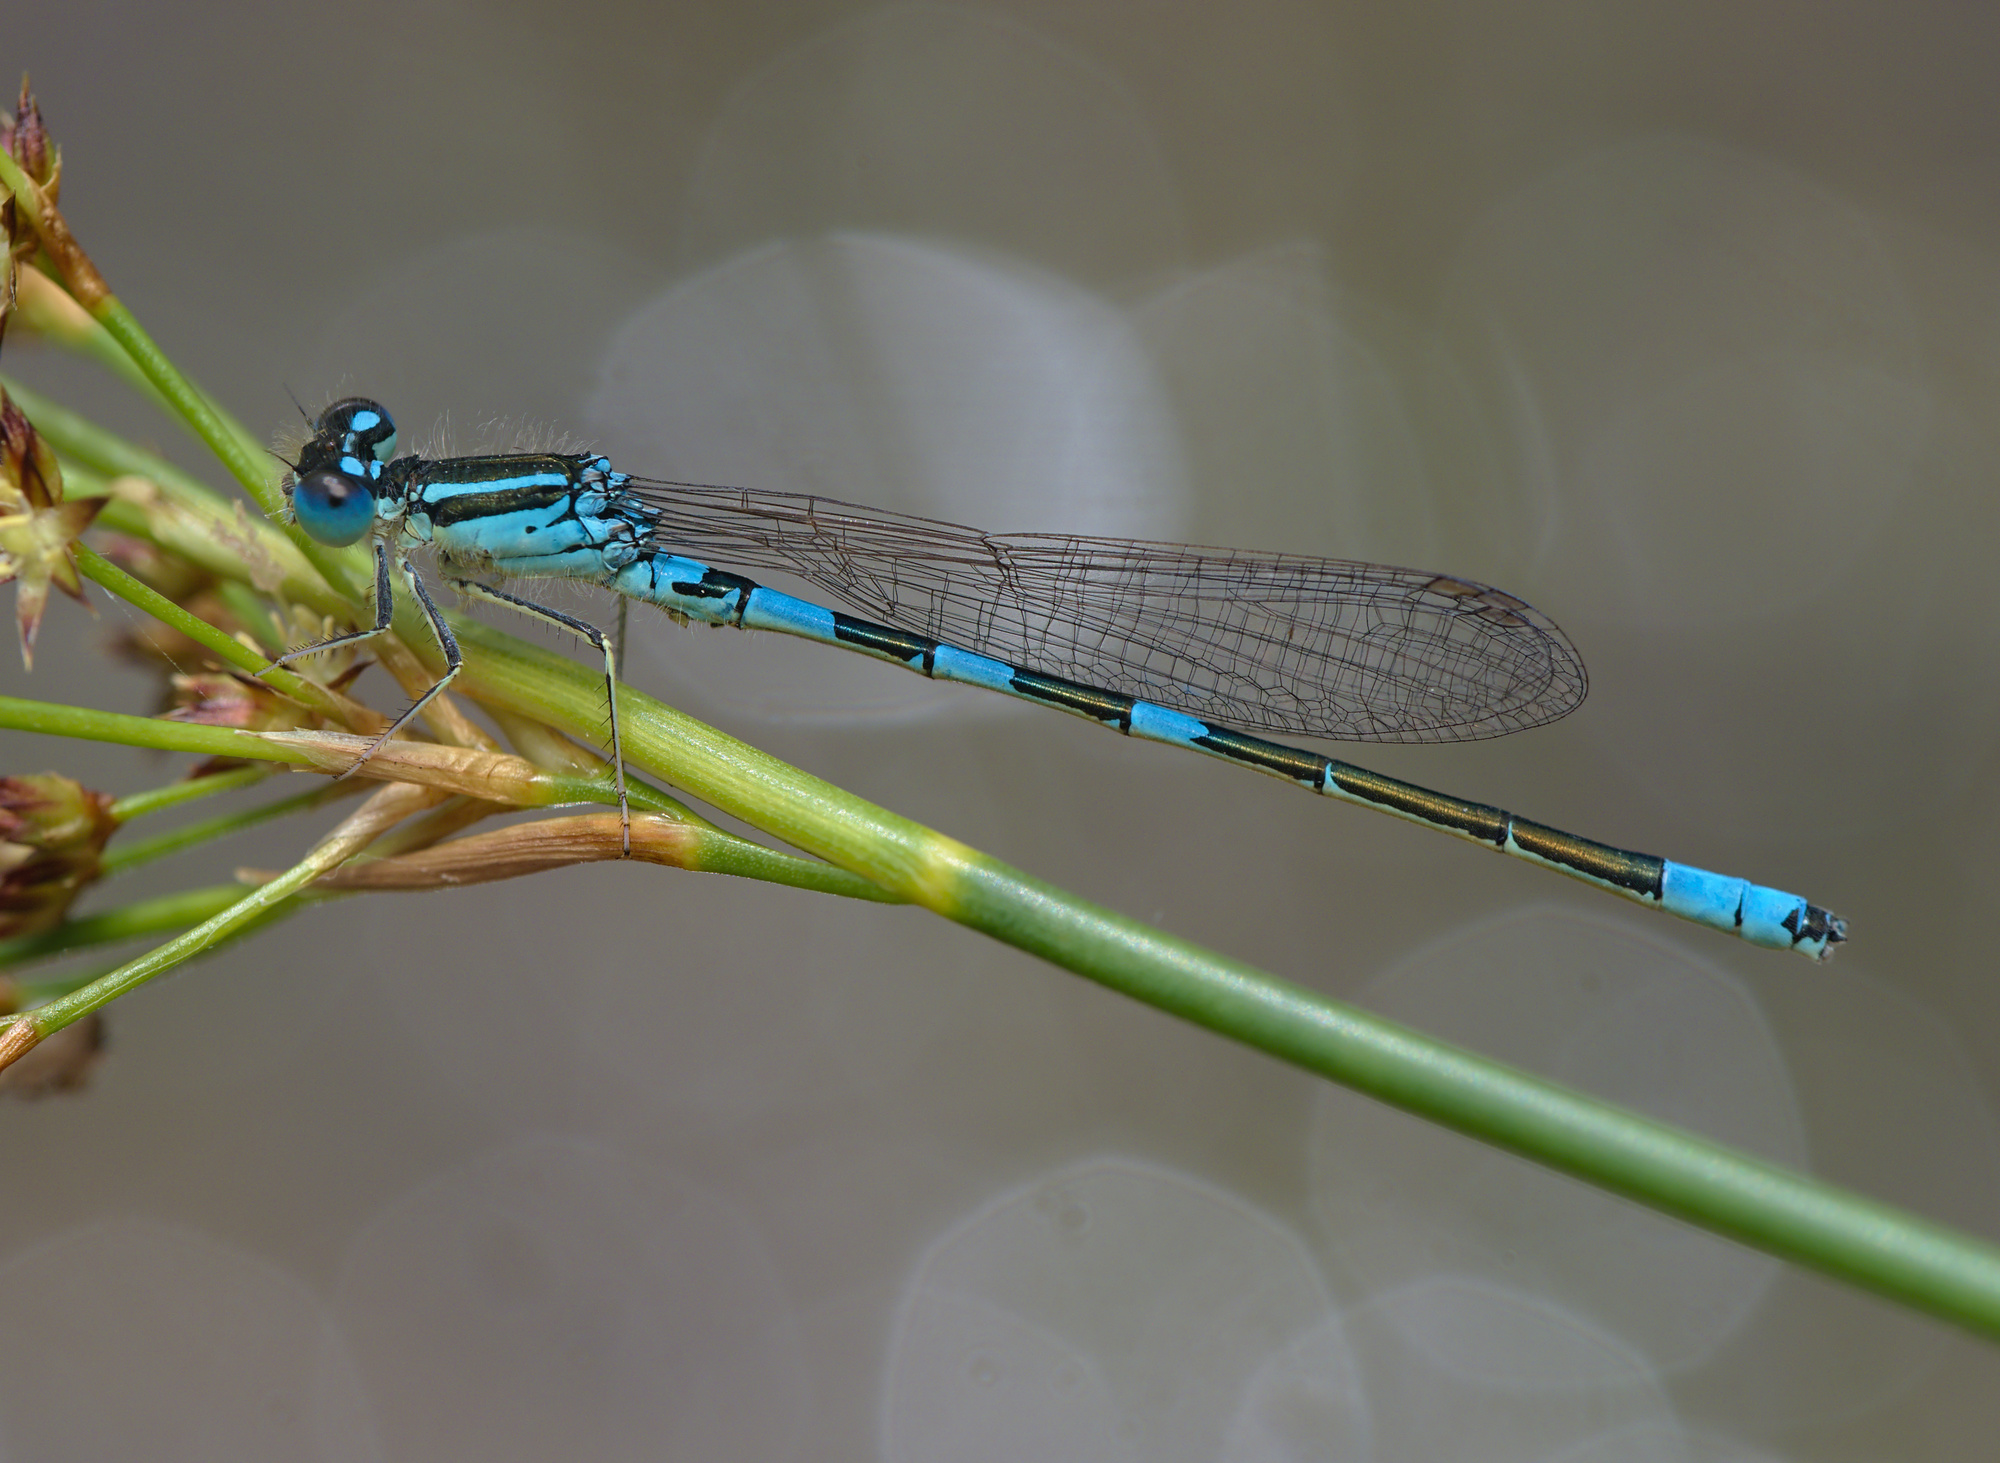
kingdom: Animalia
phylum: Arthropoda
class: Insecta
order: Odonata
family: Coenagrionidae
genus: Coenagrion
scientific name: Coenagrion scitulum
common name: Dainty bluet
